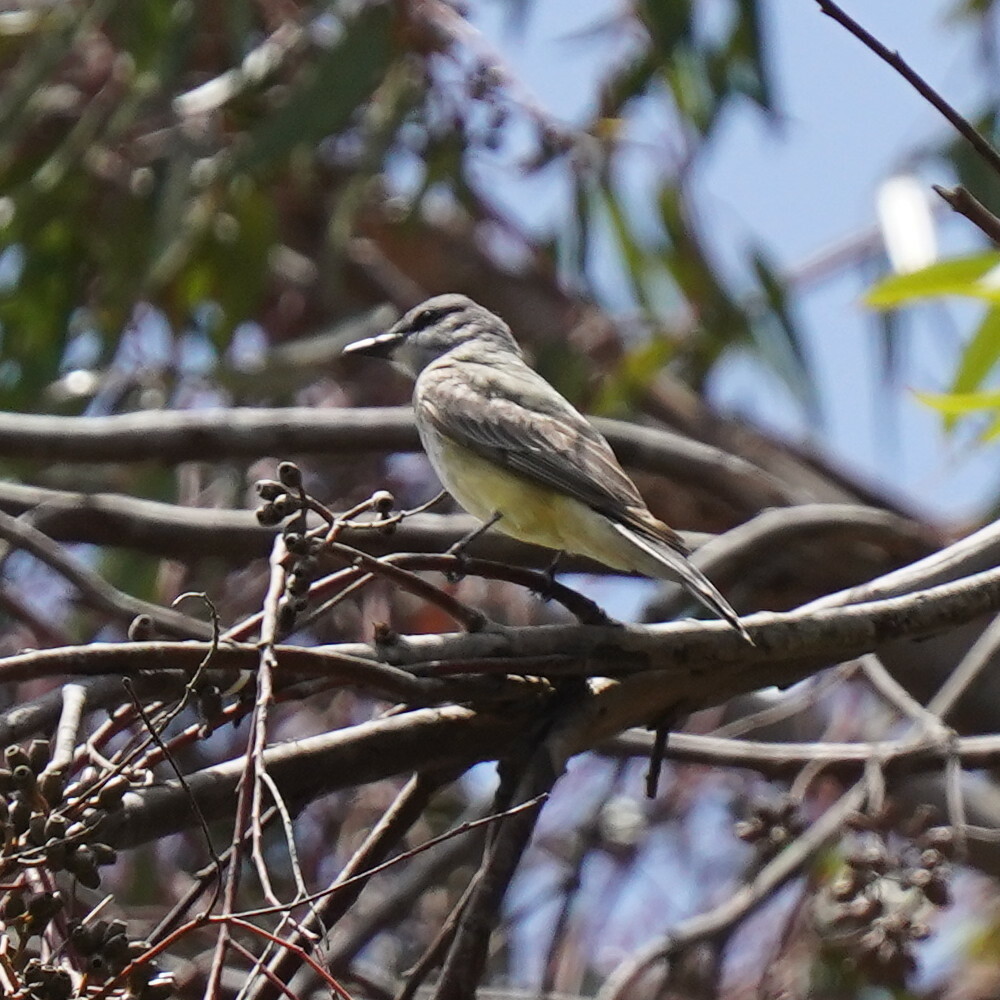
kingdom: Animalia
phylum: Chordata
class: Aves
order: Passeriformes
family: Tyrannidae
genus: Tyrannus
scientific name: Tyrannus vociferans
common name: Cassin's kingbird
